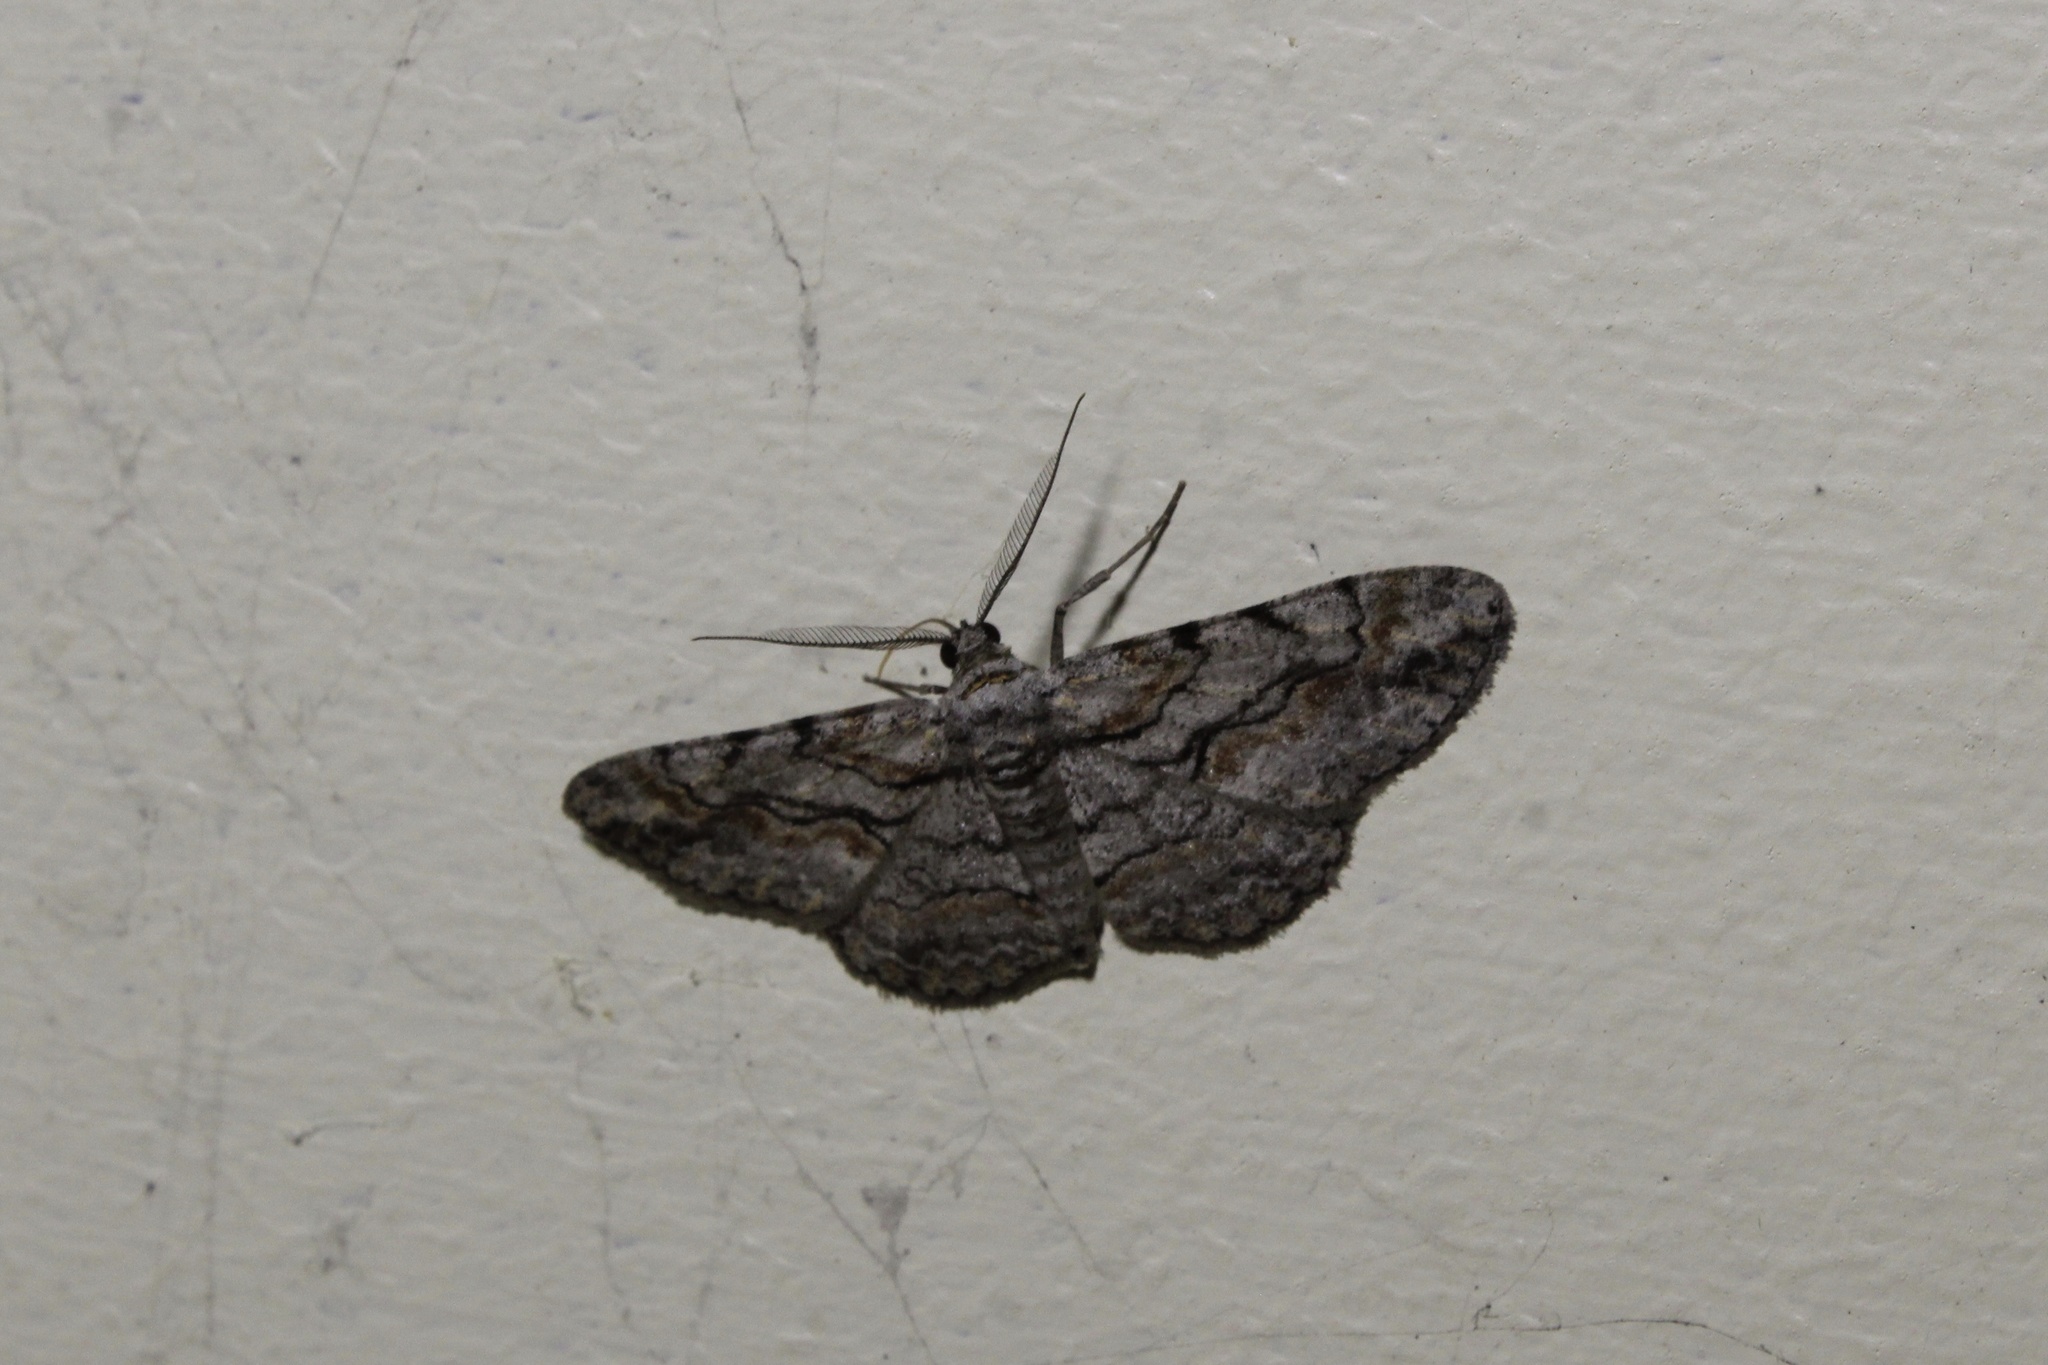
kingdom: Animalia
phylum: Arthropoda
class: Insecta
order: Lepidoptera
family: Geometridae
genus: Anavitrinella
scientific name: Anavitrinella pampinaria
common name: Common gray
